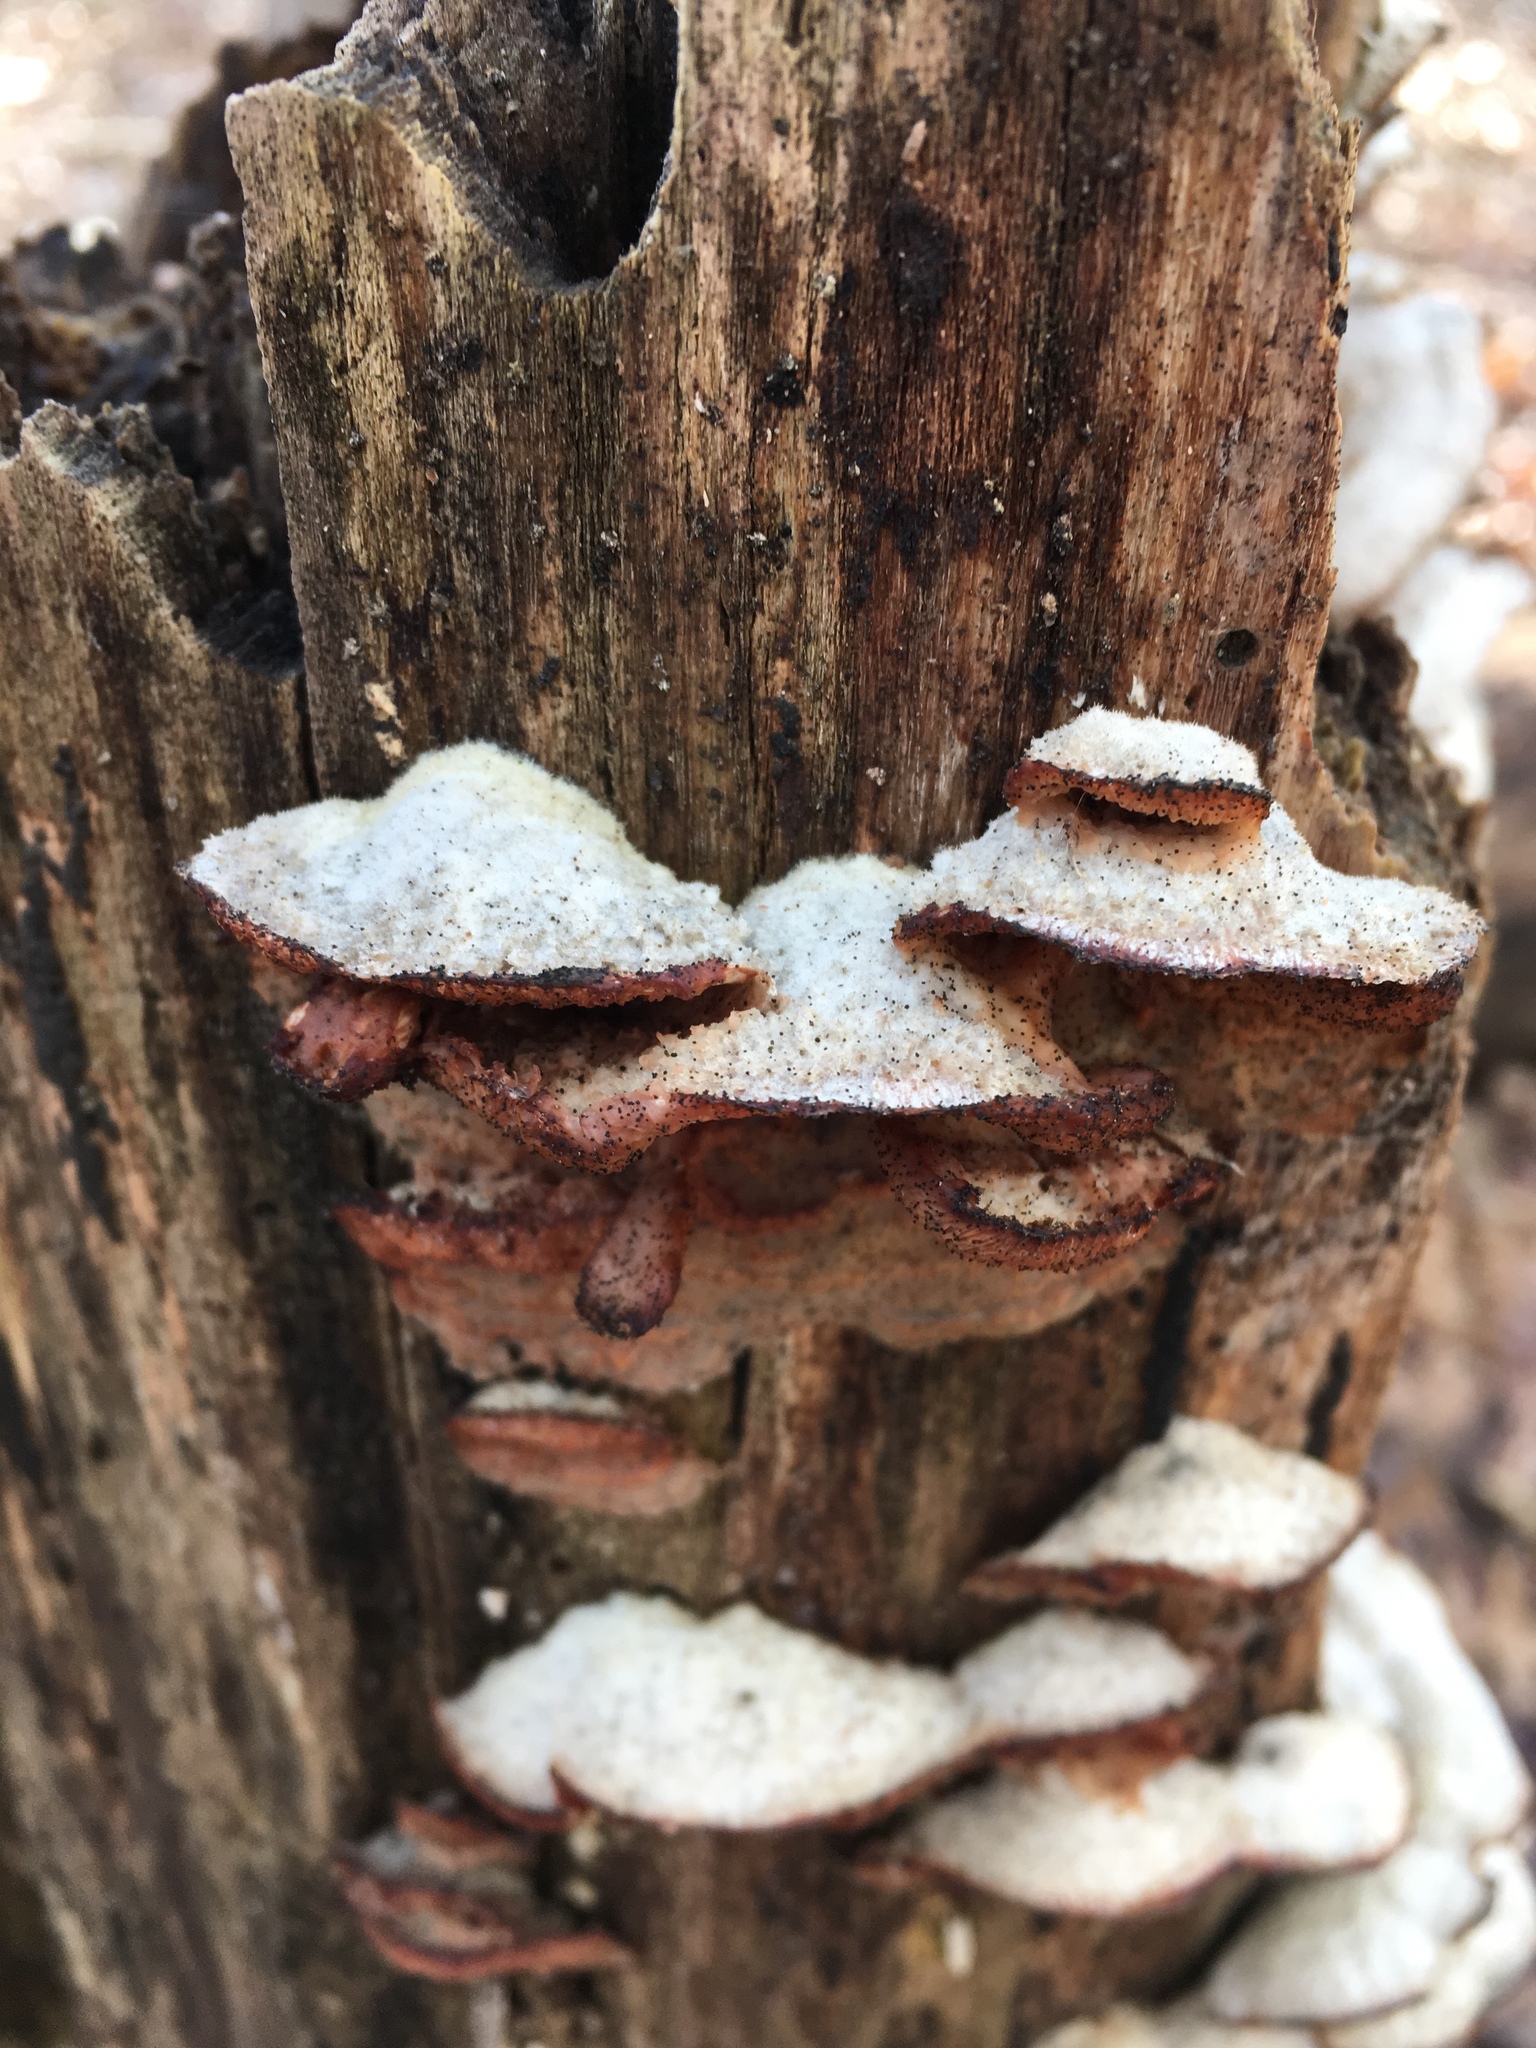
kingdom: Fungi
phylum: Basidiomycota
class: Agaricomycetes
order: Polyporales
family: Meruliaceae
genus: Phlebia
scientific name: Phlebia tremellosa
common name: Jelly rot
